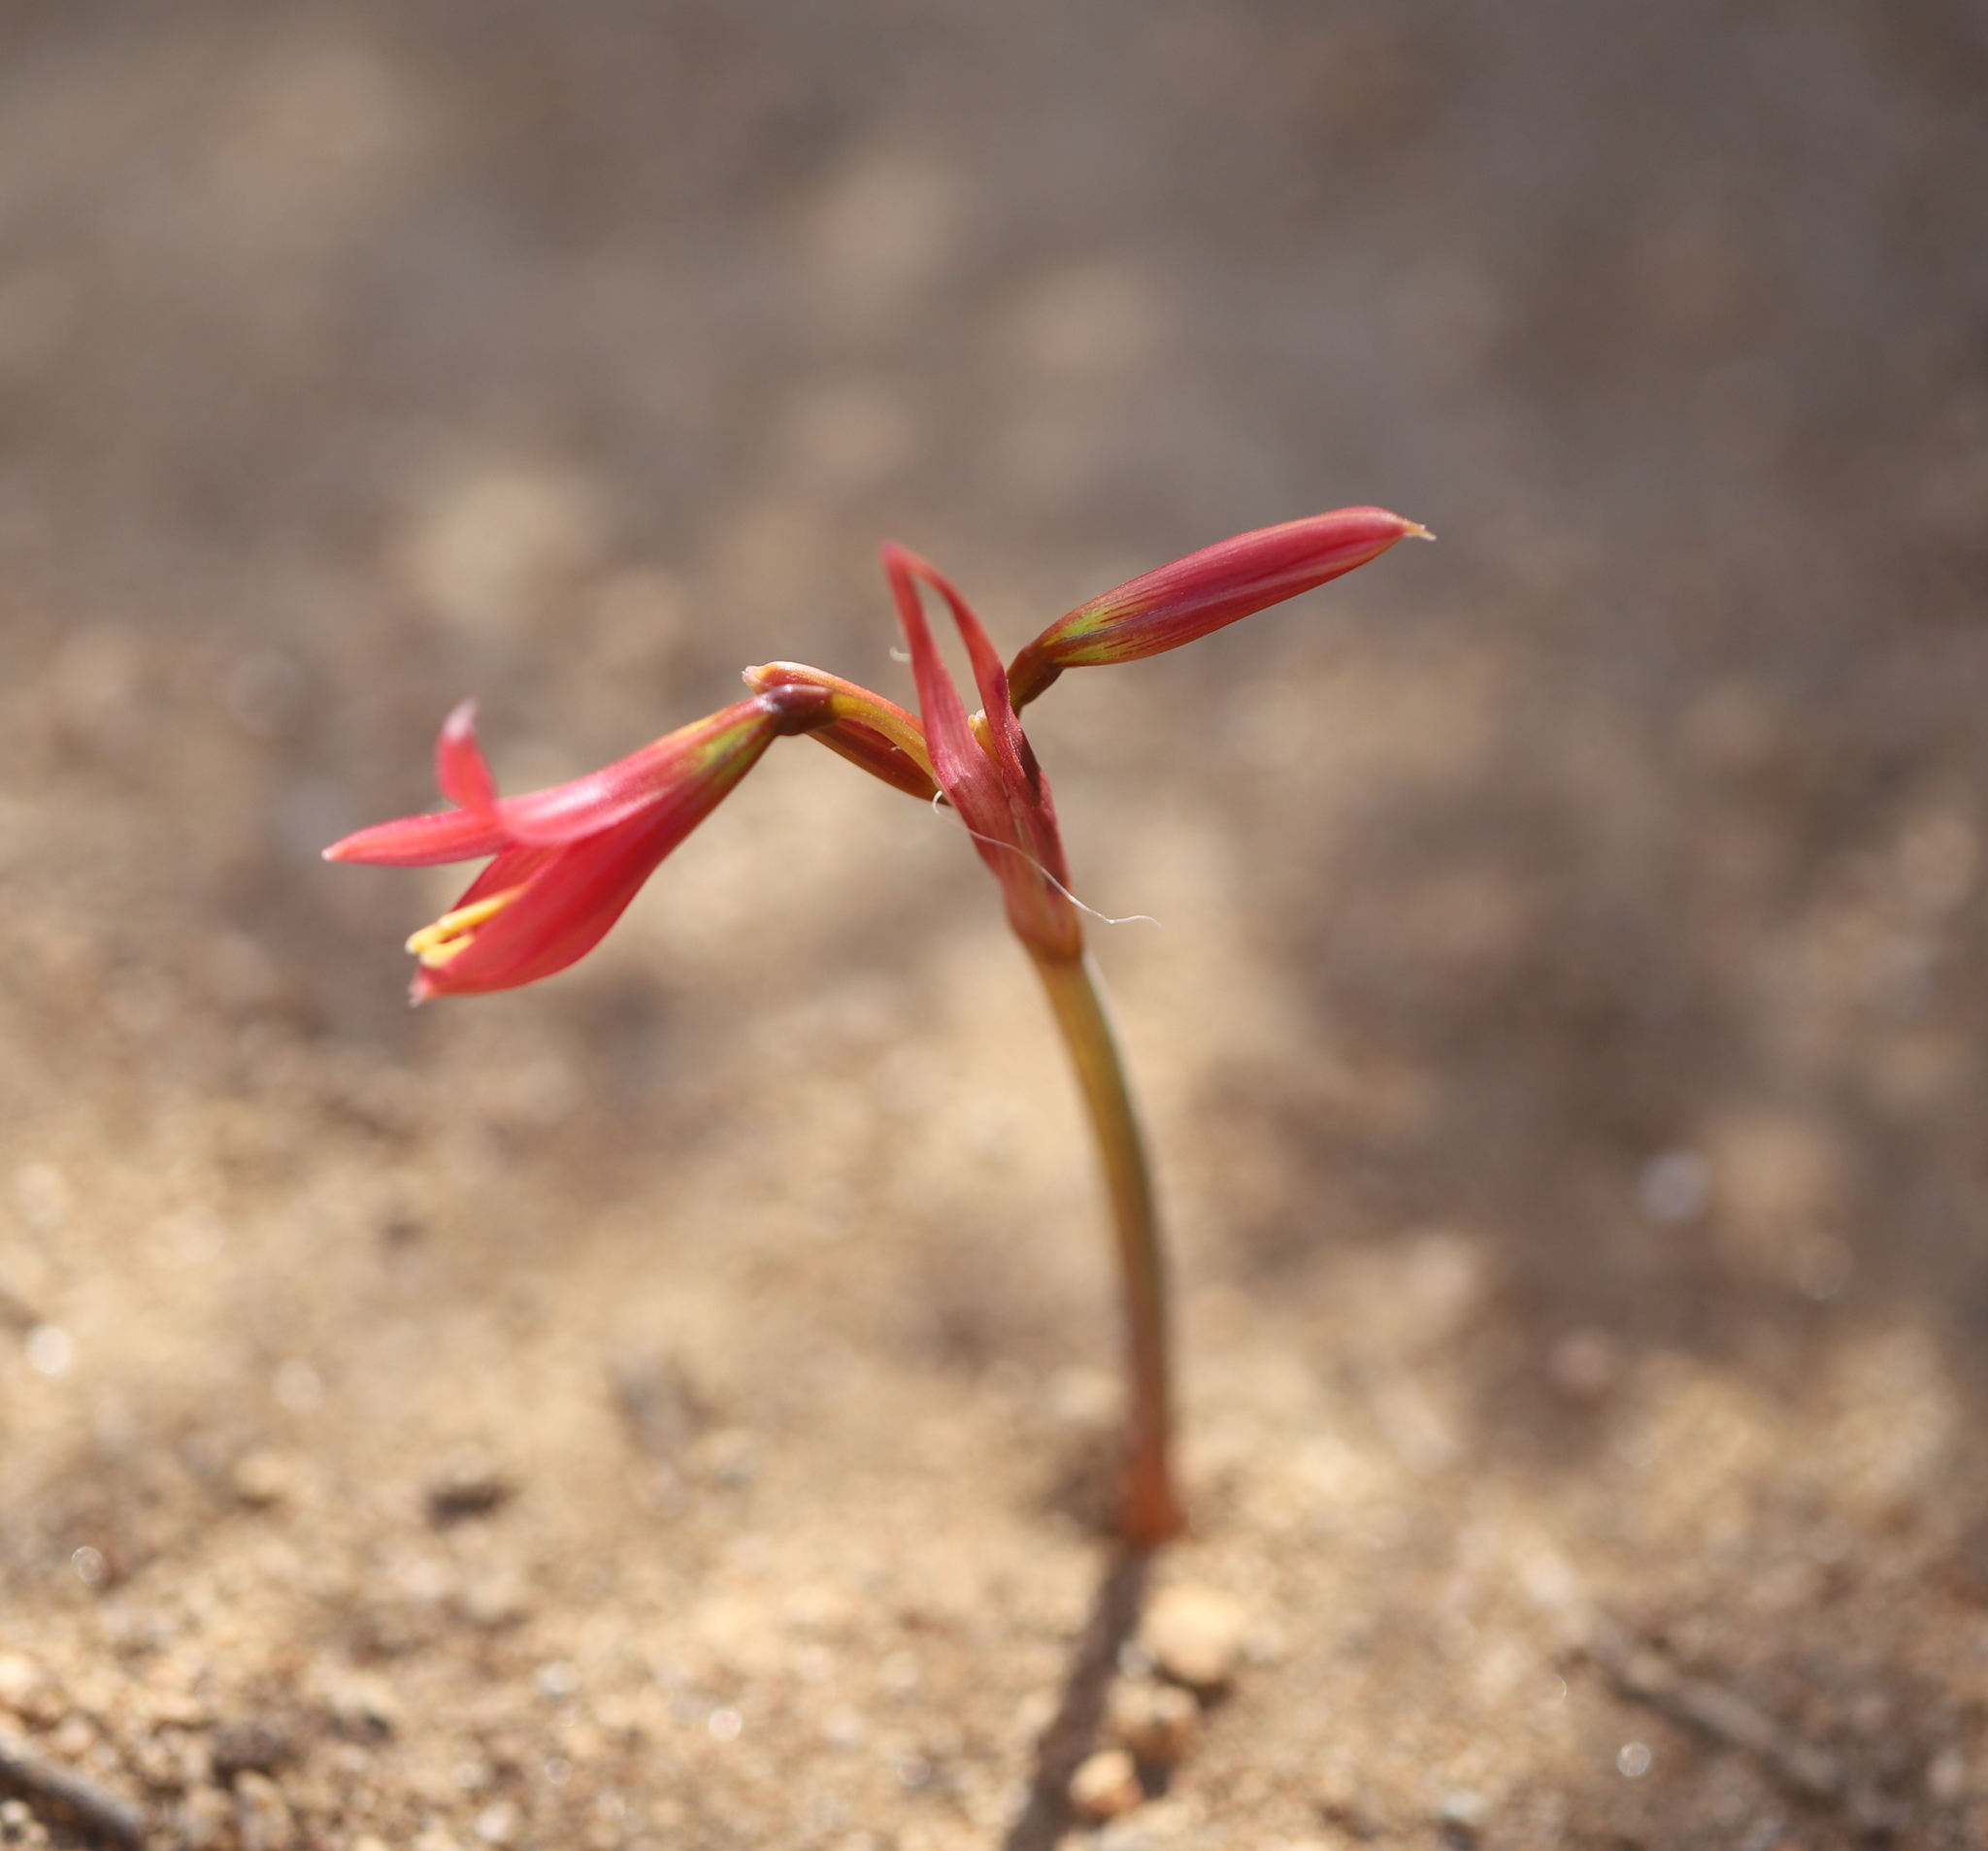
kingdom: Plantae
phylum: Tracheophyta
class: Liliopsida
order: Asparagales
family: Amaryllidaceae
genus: Zephyranthes
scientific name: Zephyranthes advena
